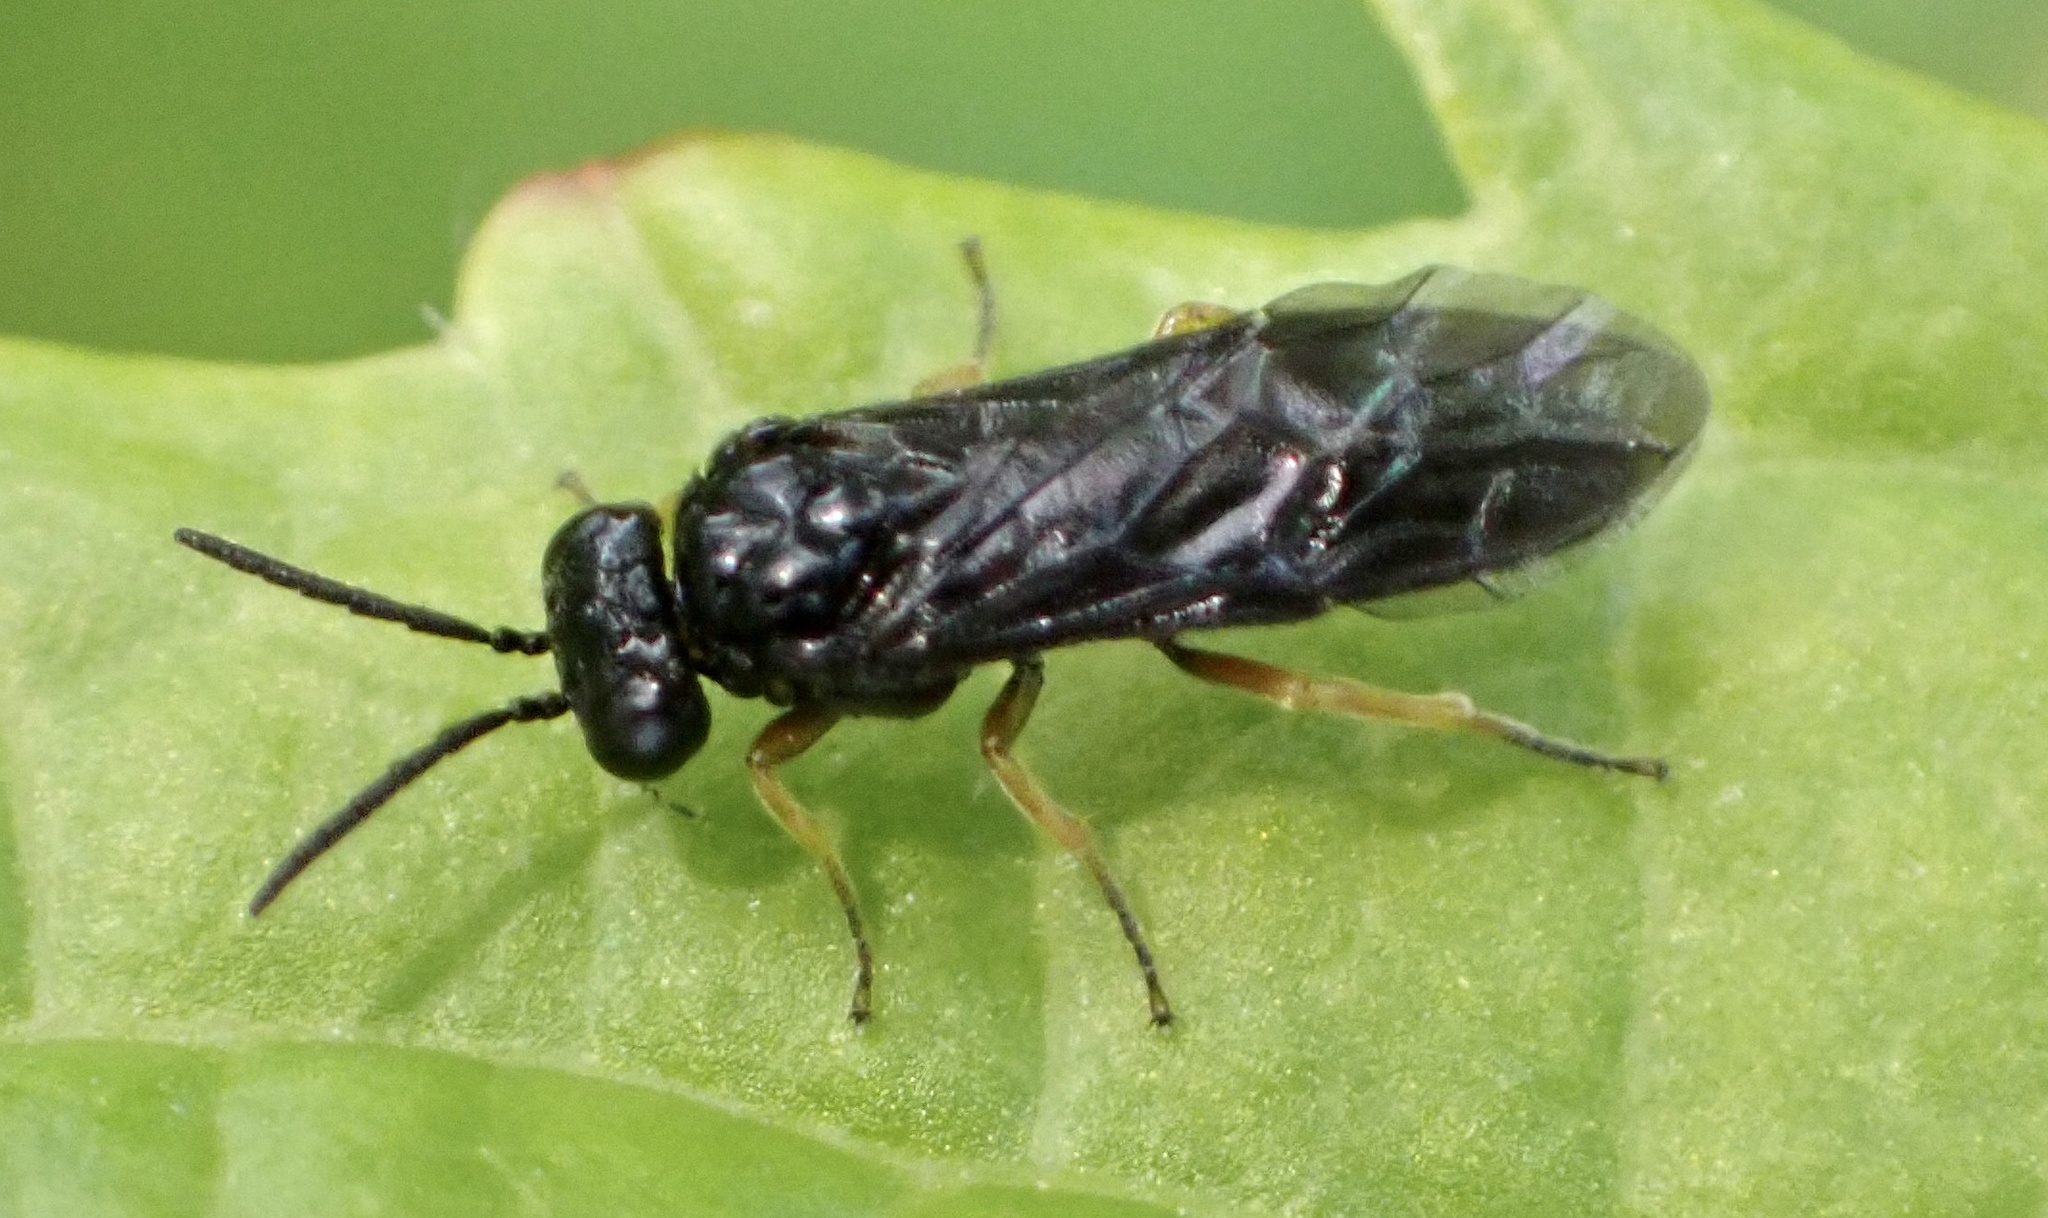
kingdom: Animalia
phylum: Arthropoda
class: Insecta
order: Hymenoptera
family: Tenthredinidae
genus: Nesoselandria
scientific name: Nesoselandria morio
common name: Tenthredid wasp
